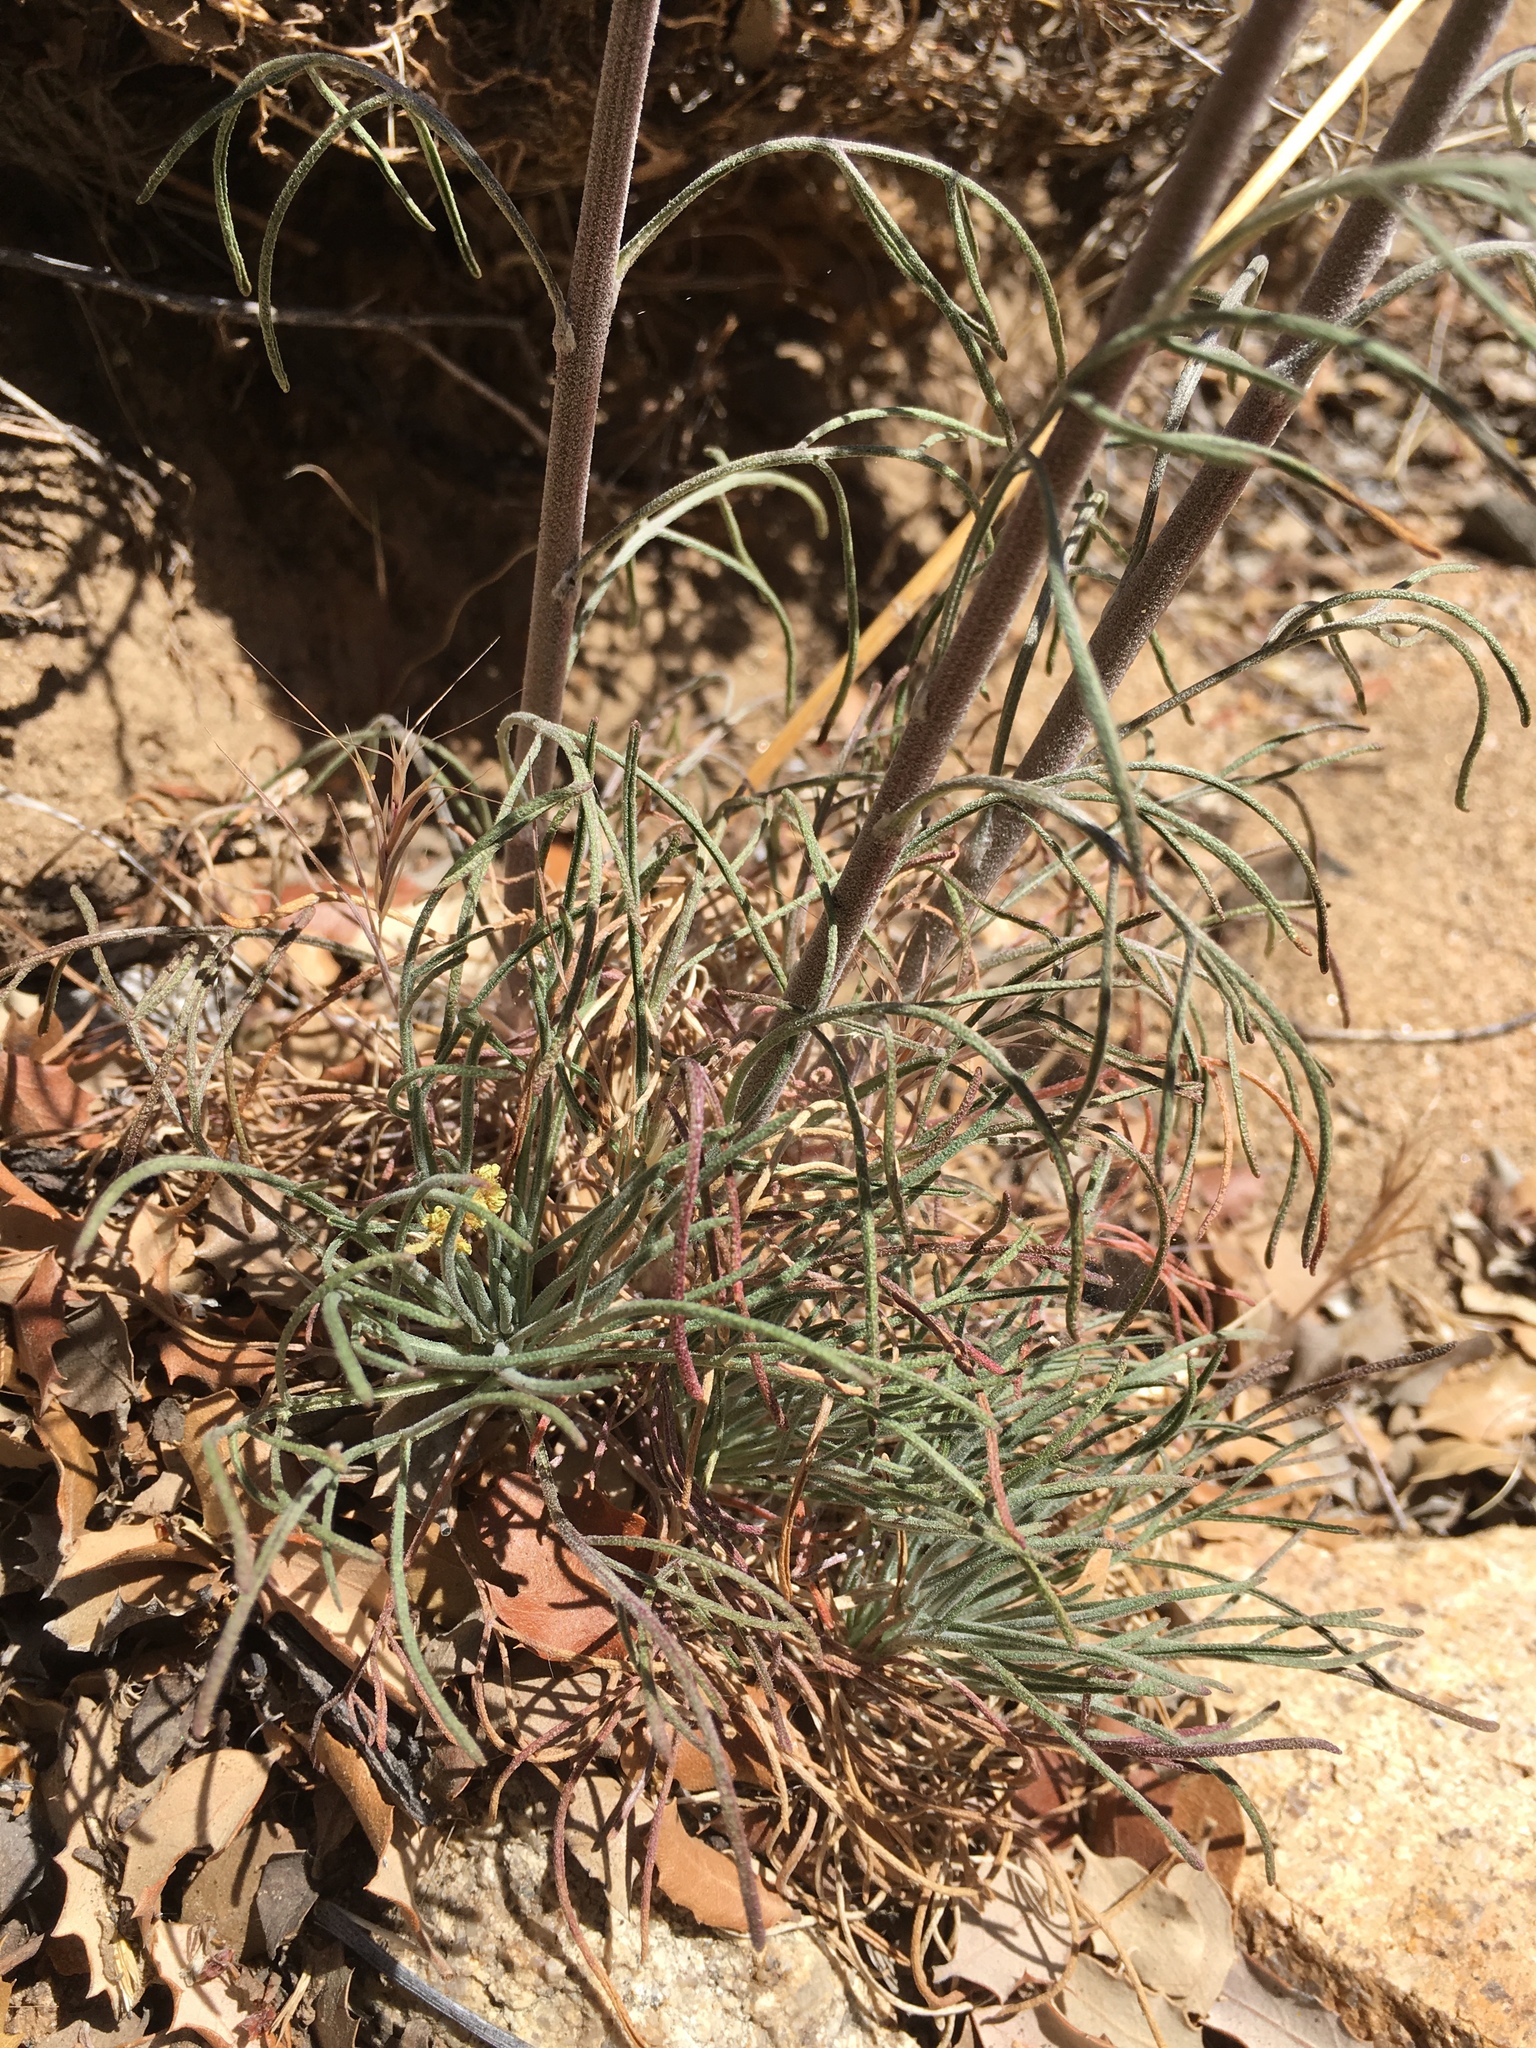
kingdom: Plantae
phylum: Tracheophyta
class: Magnoliopsida
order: Asterales
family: Asteraceae
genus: Hymenoxys
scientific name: Hymenoxys cooperi
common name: Cooper's bitterweed
